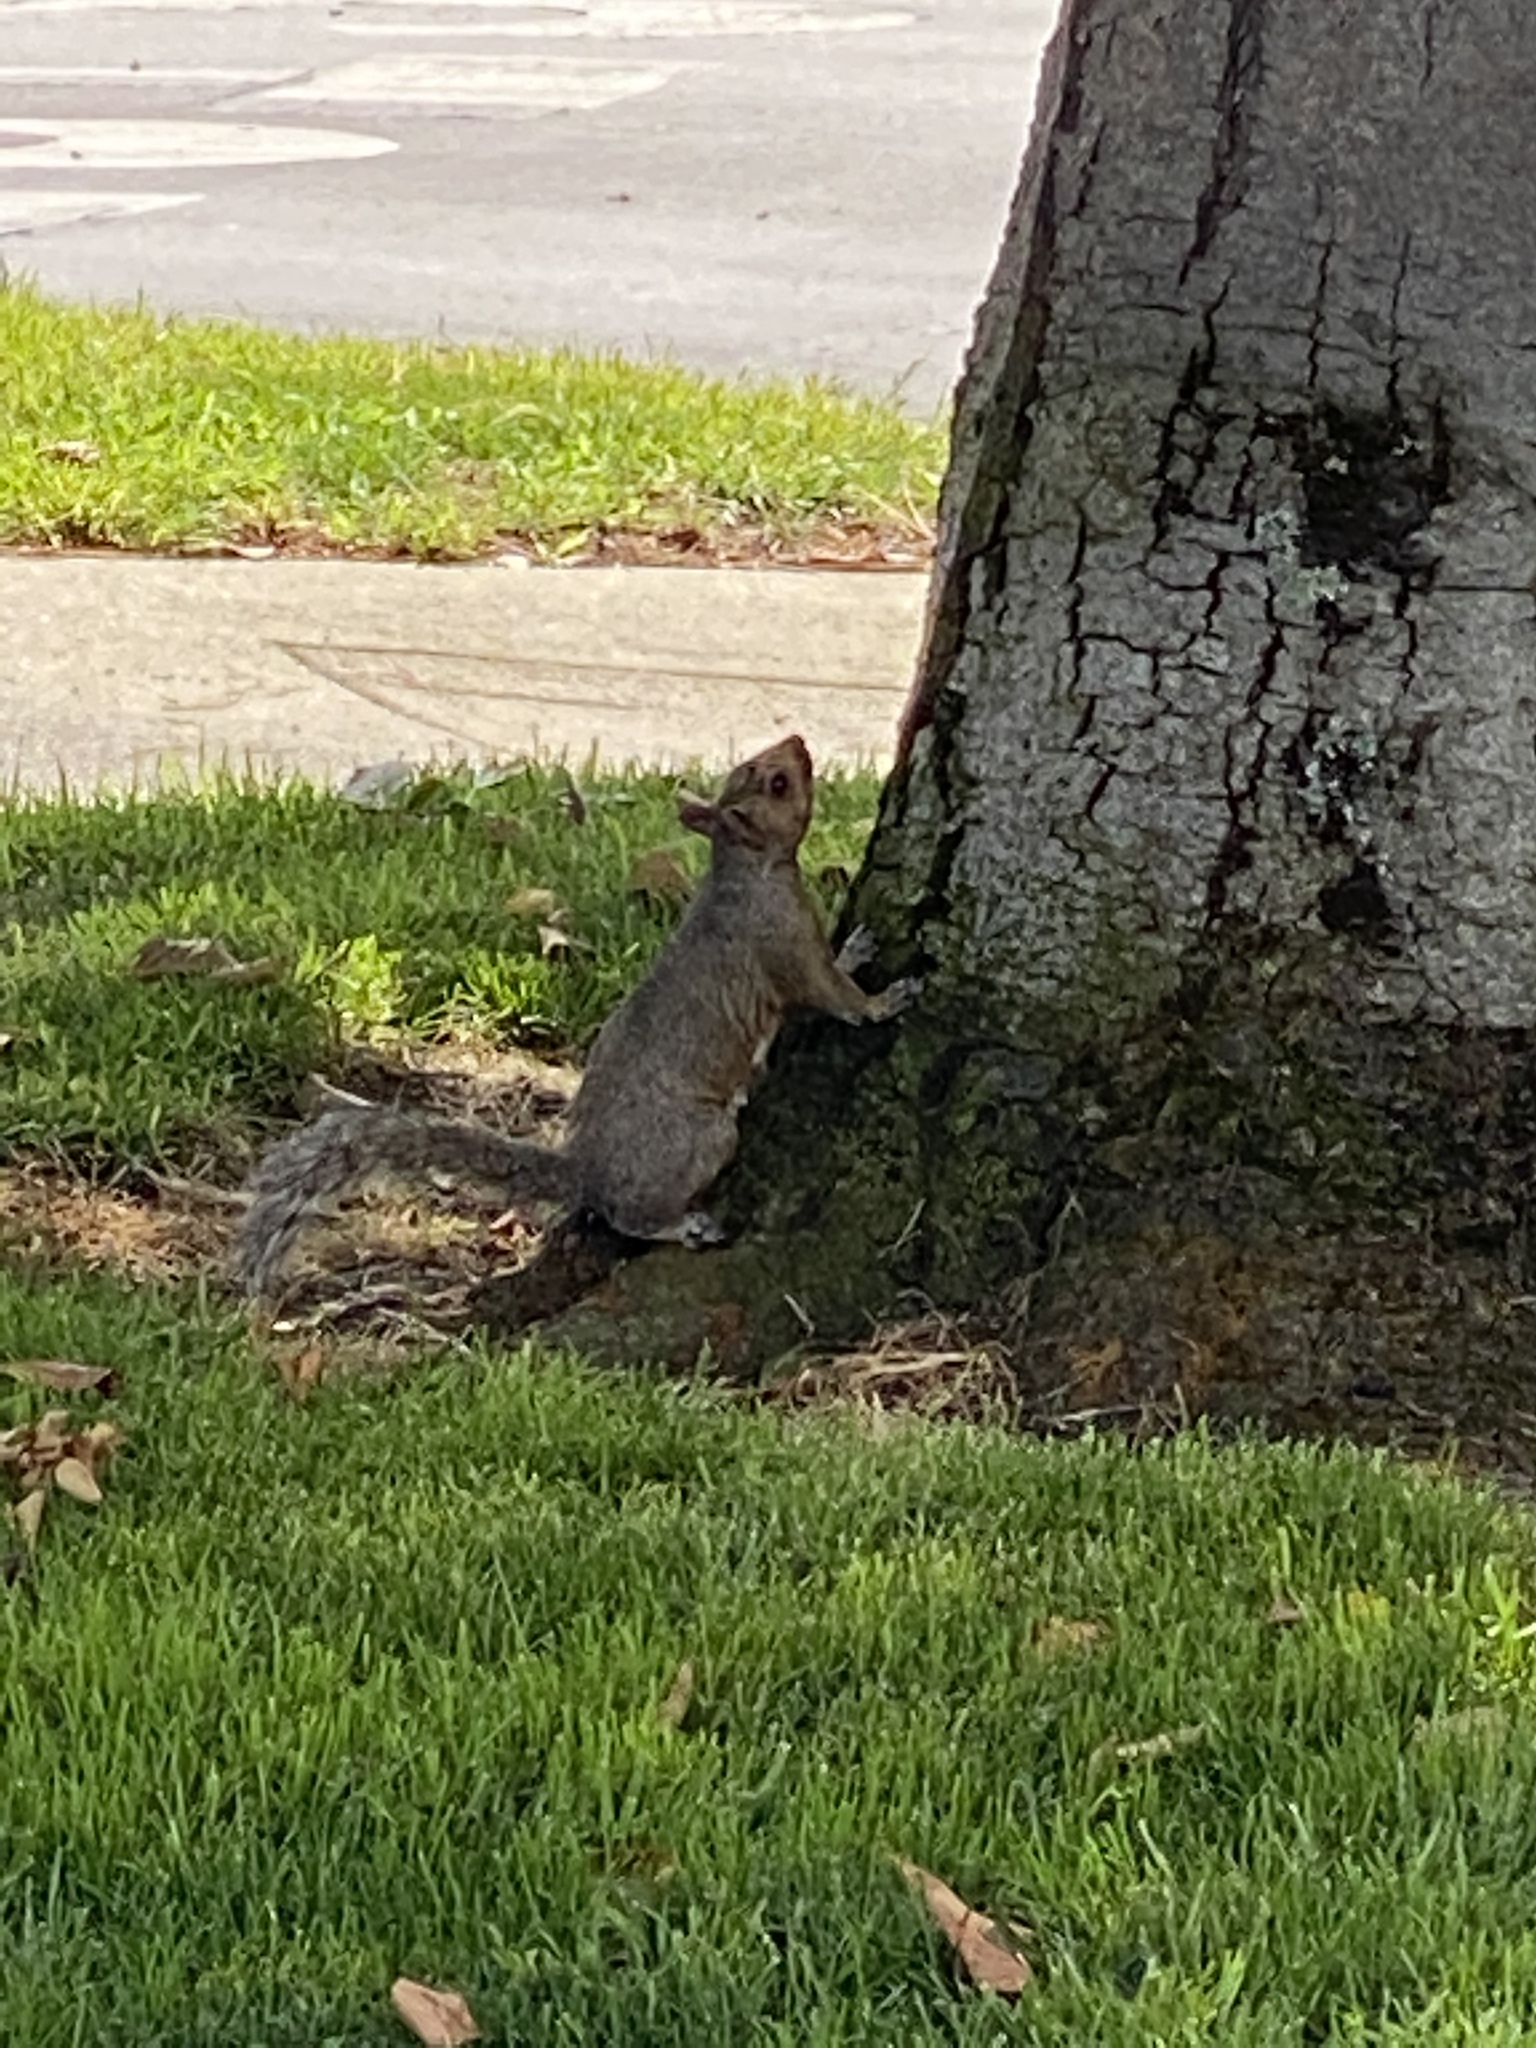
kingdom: Animalia
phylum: Chordata
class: Mammalia
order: Rodentia
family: Sciuridae
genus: Sciurus
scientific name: Sciurus carolinensis
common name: Eastern gray squirrel
